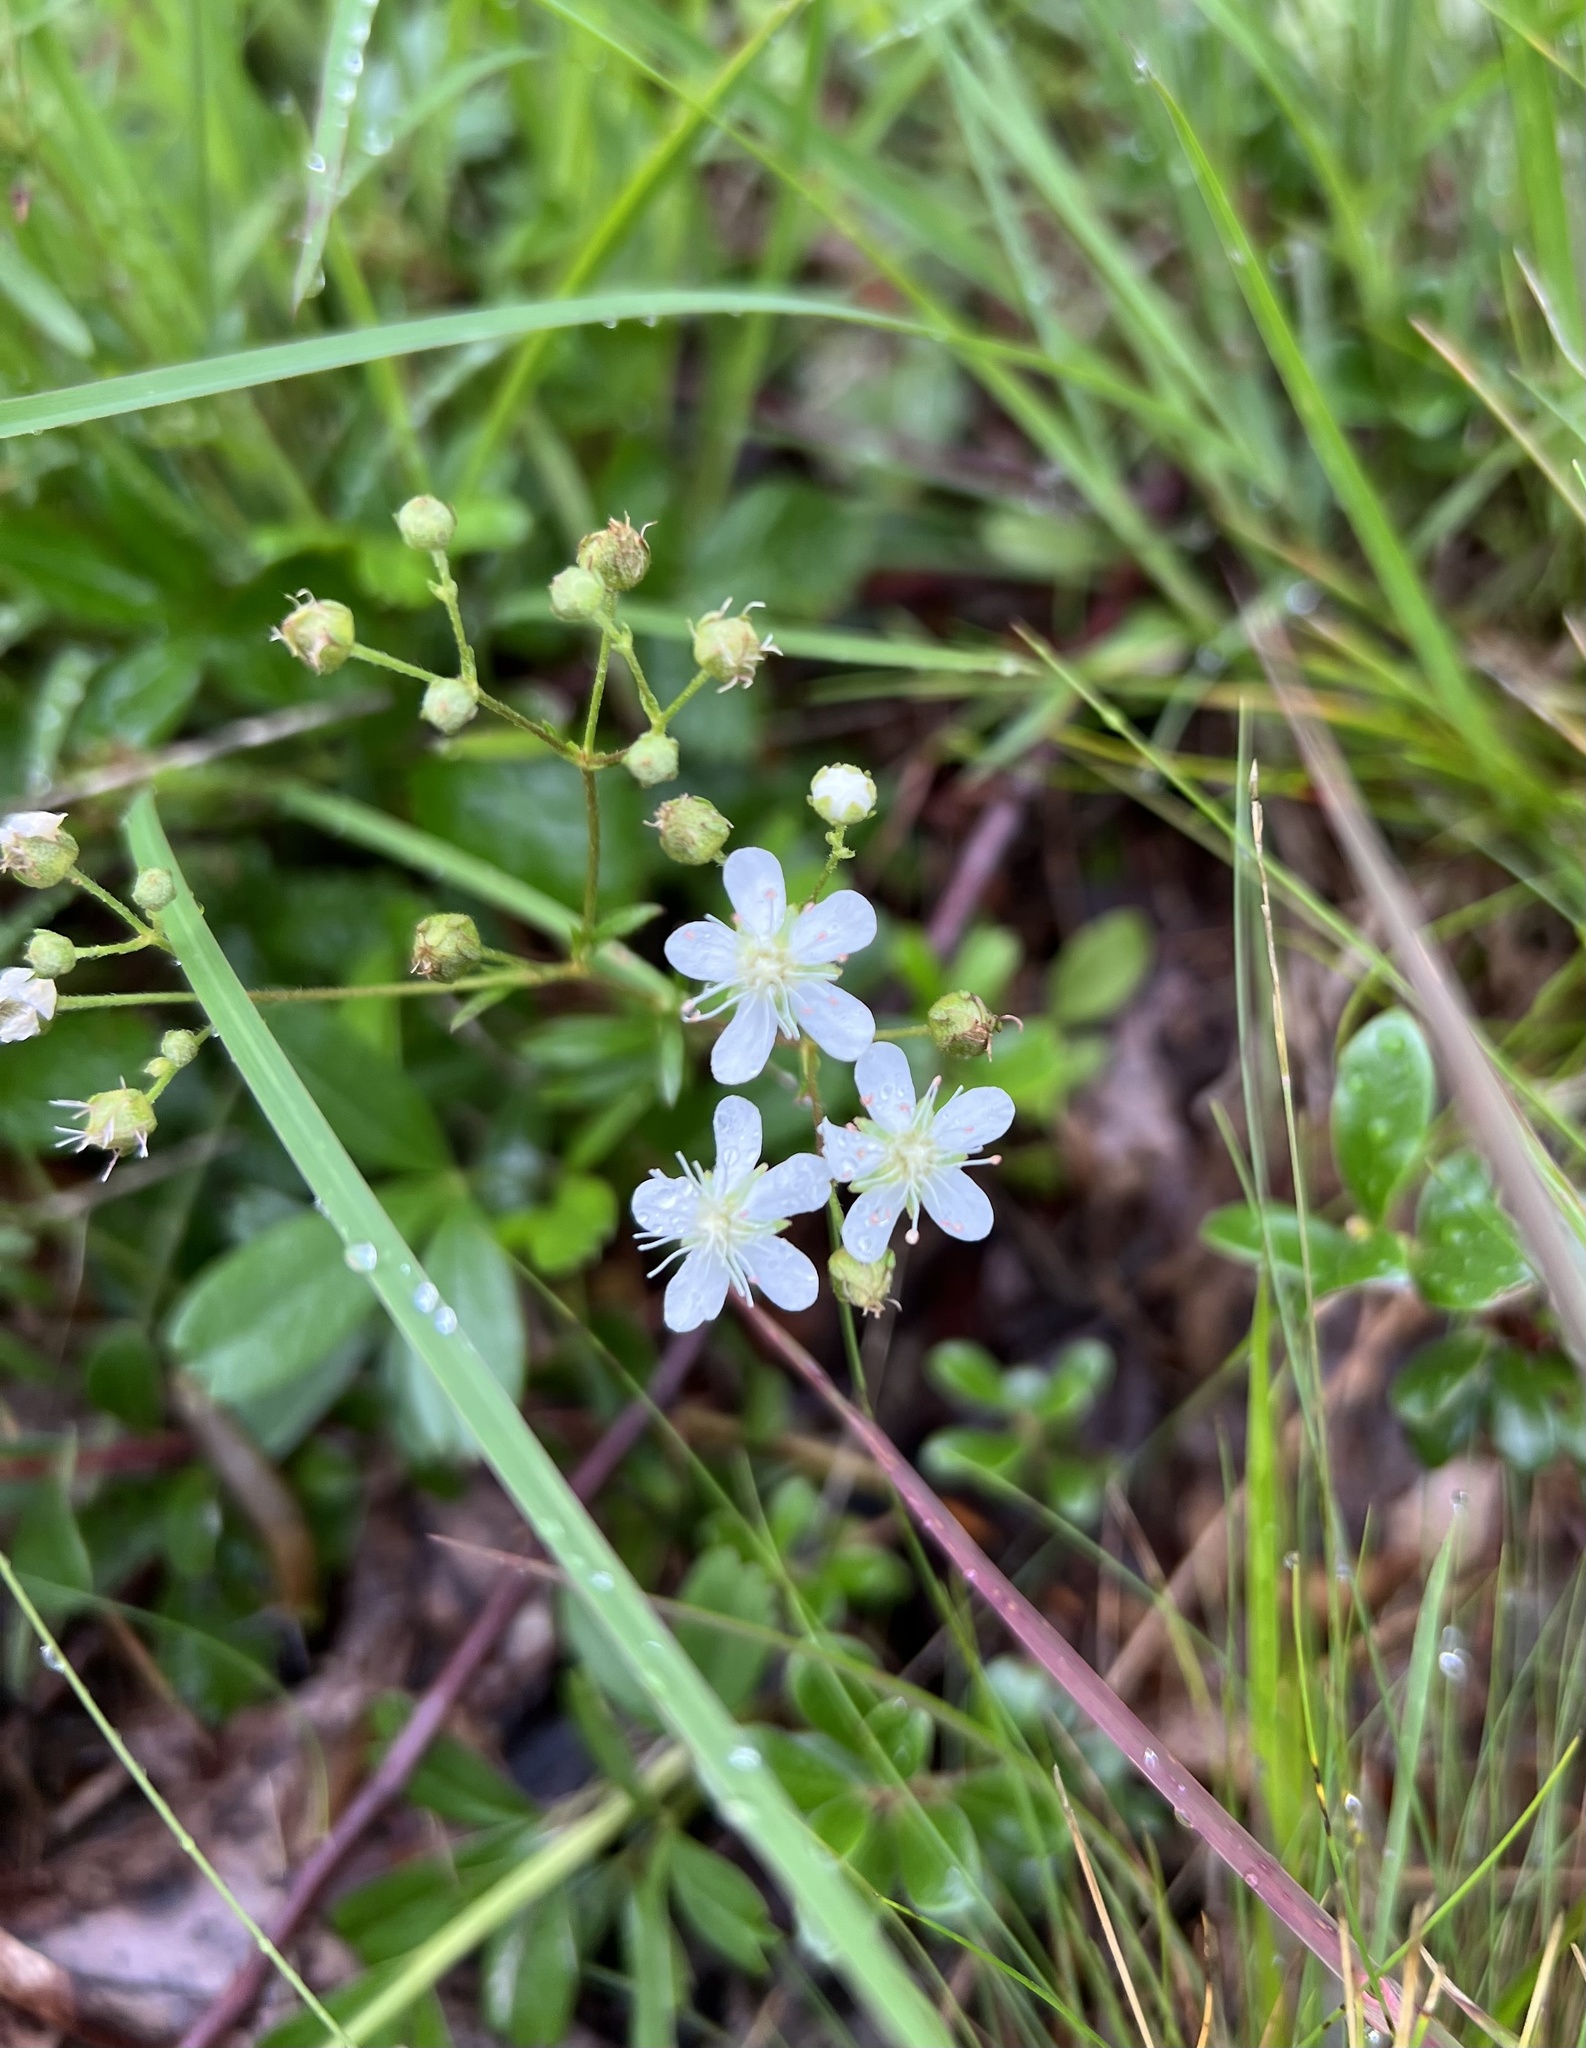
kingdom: Plantae
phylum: Tracheophyta
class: Magnoliopsida
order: Rosales
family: Rosaceae
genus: Sibbaldia
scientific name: Sibbaldia tridentata
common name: Three-toothed cinquefoil
